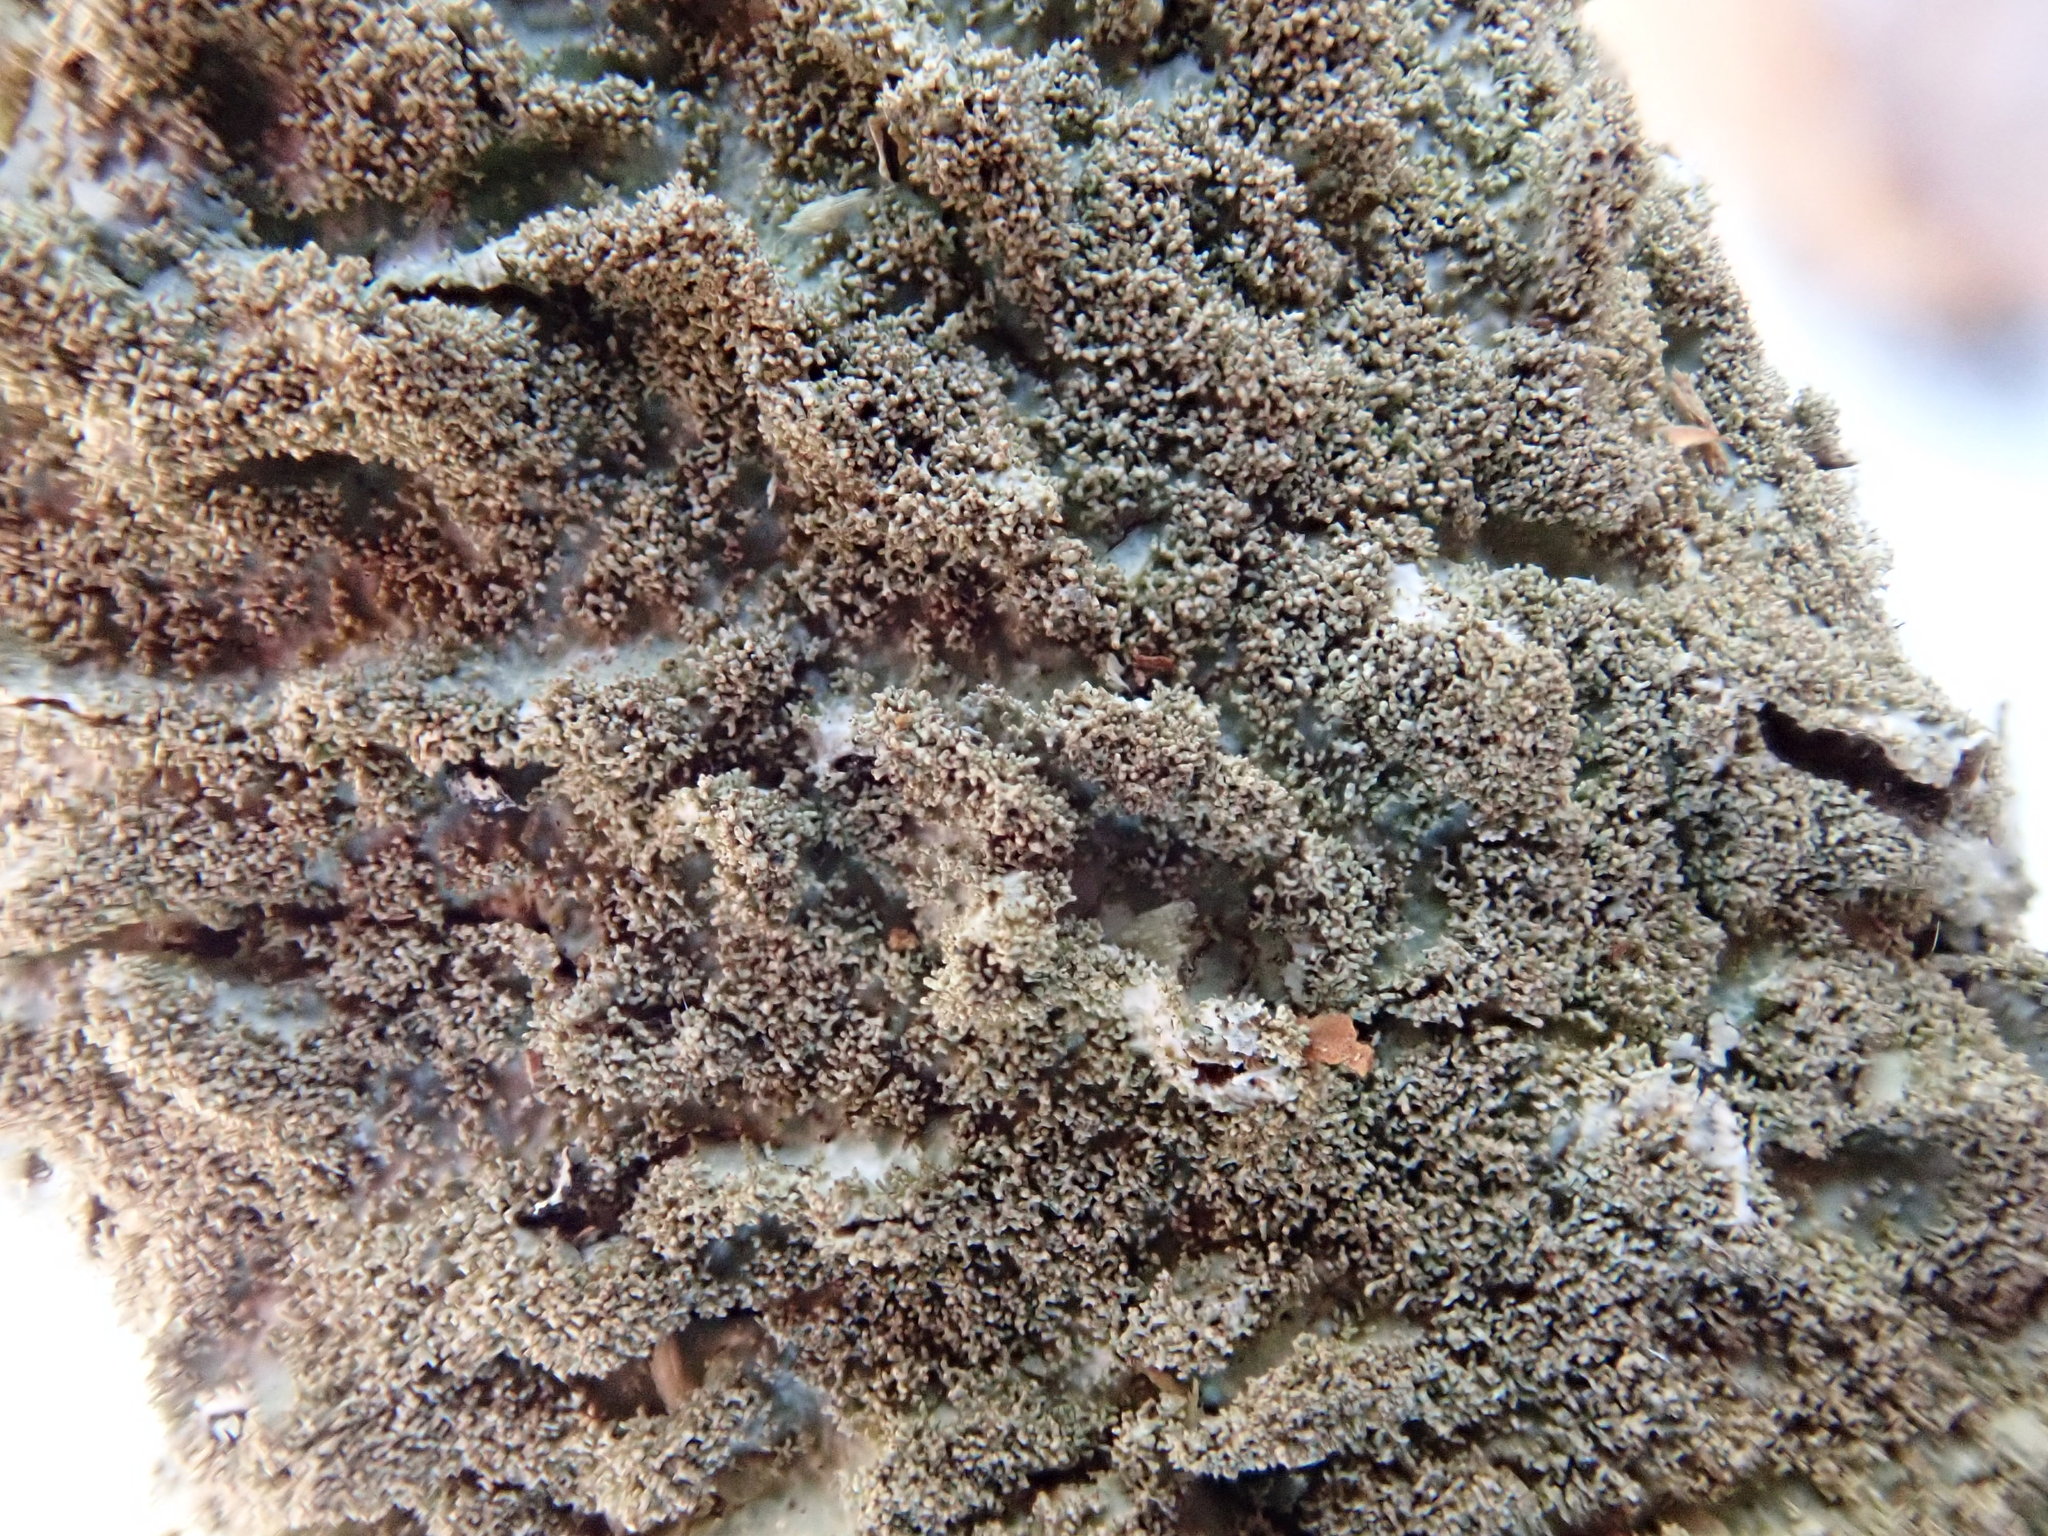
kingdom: Fungi
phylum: Ascomycota
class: Lecanoromycetes
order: Lecanorales
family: Parmeliaceae
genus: Punctelia
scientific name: Punctelia rudecta
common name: Rough speckled shield lichen
